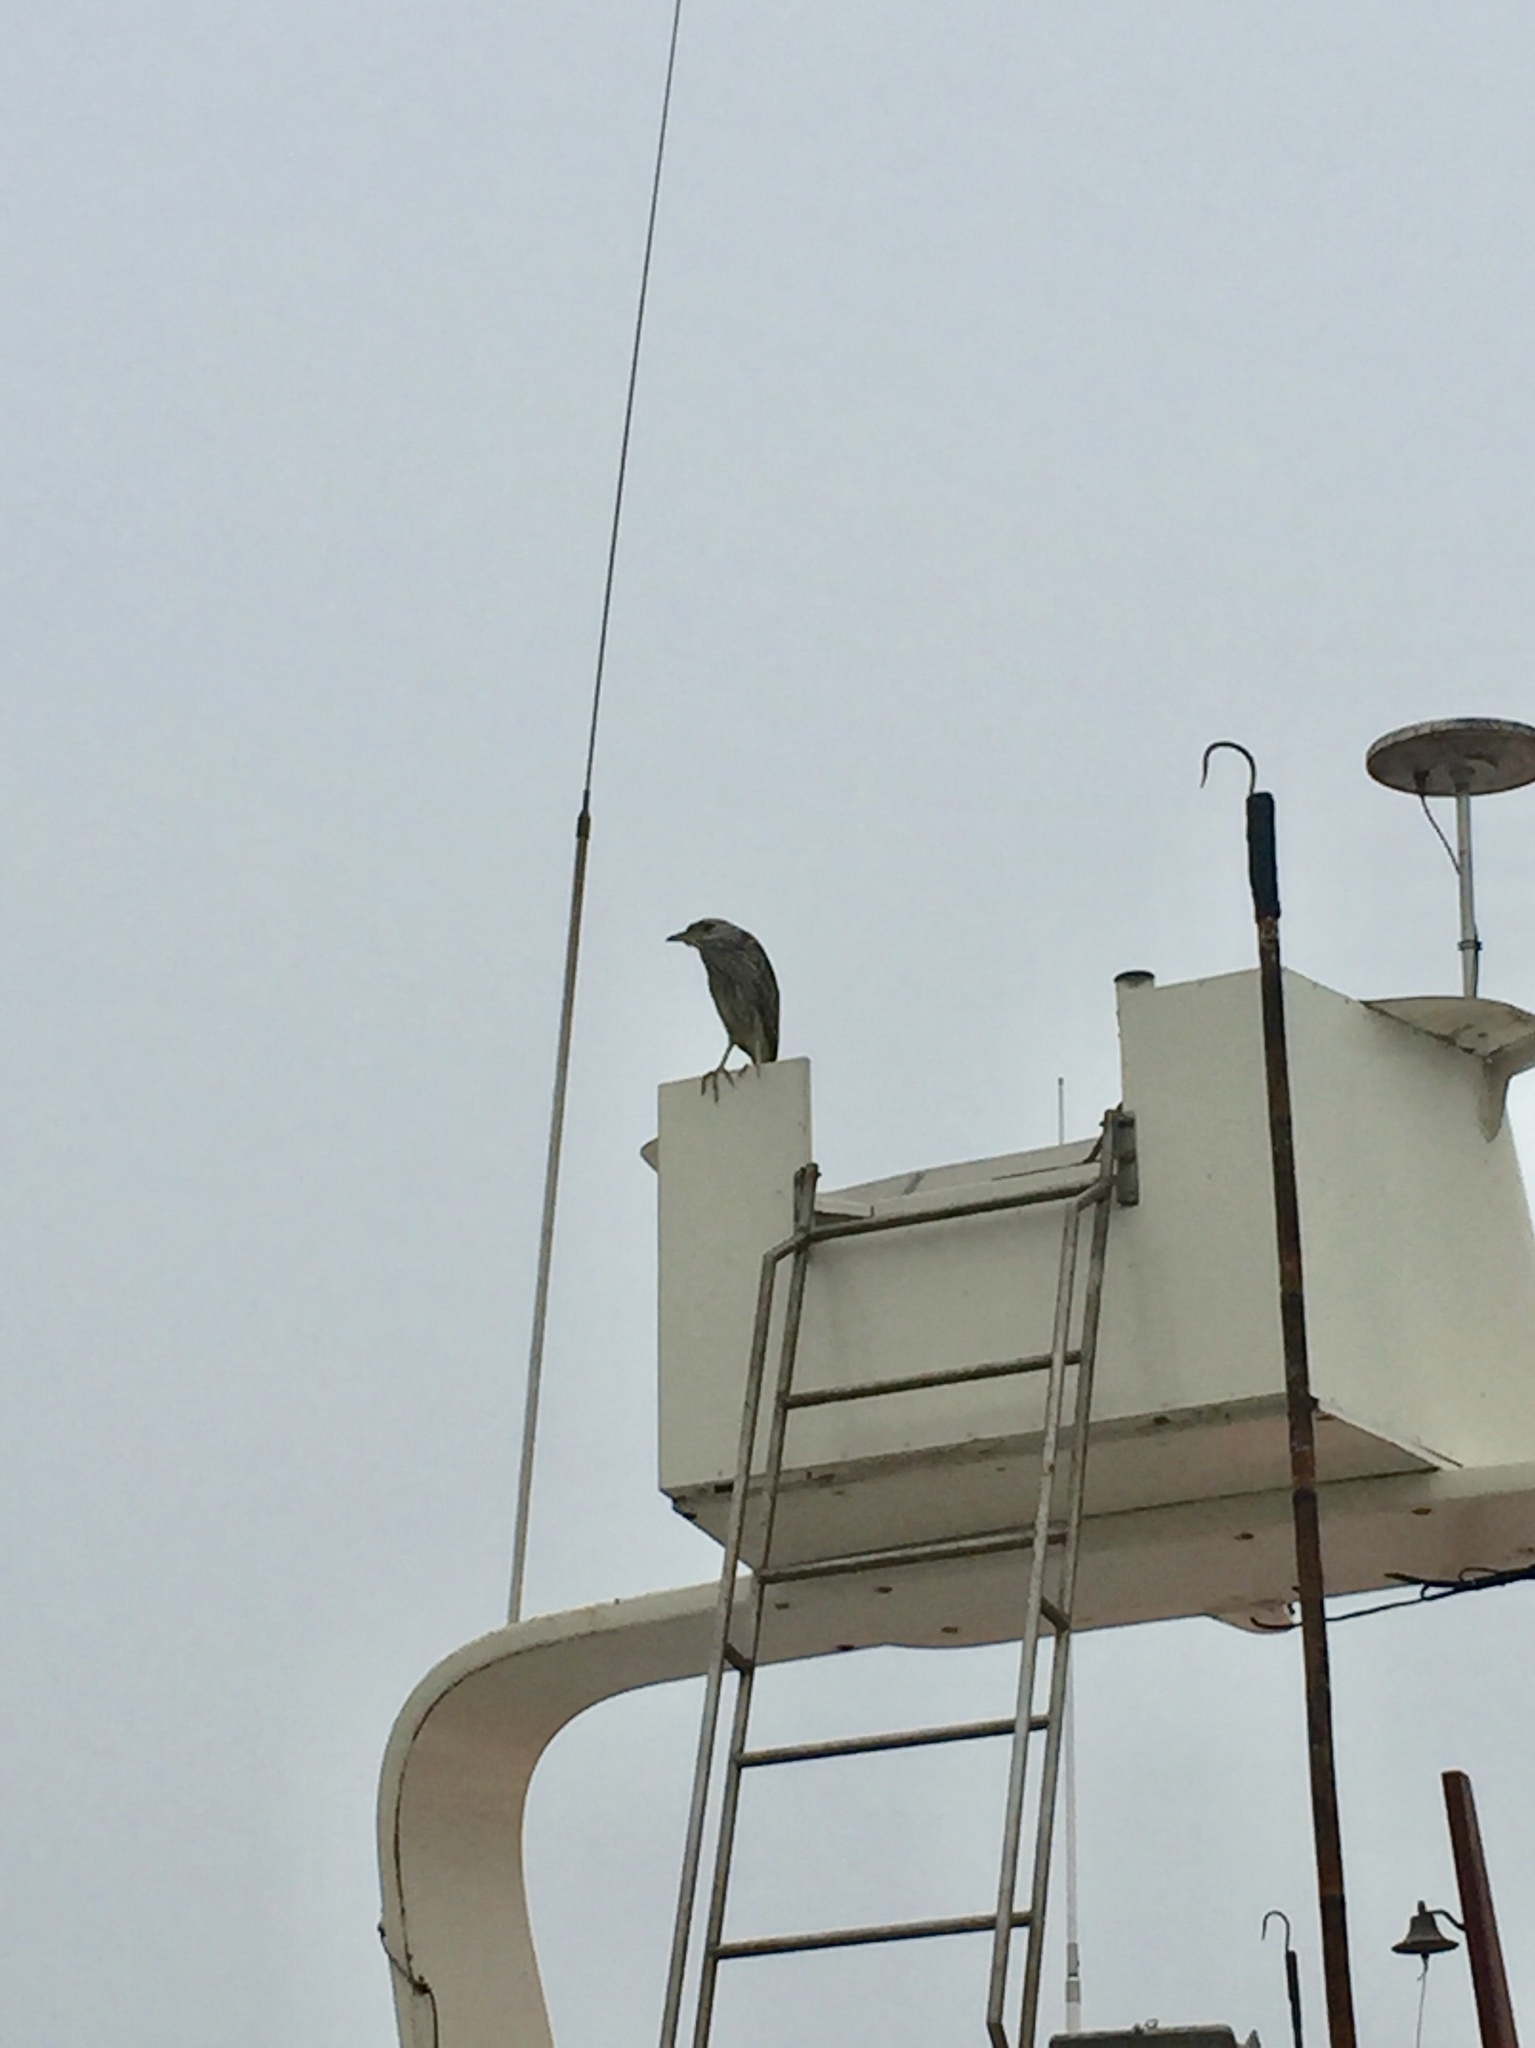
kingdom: Animalia
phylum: Chordata
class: Aves
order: Pelecaniformes
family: Ardeidae
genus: Nycticorax
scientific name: Nycticorax nycticorax
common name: Black-crowned night heron
